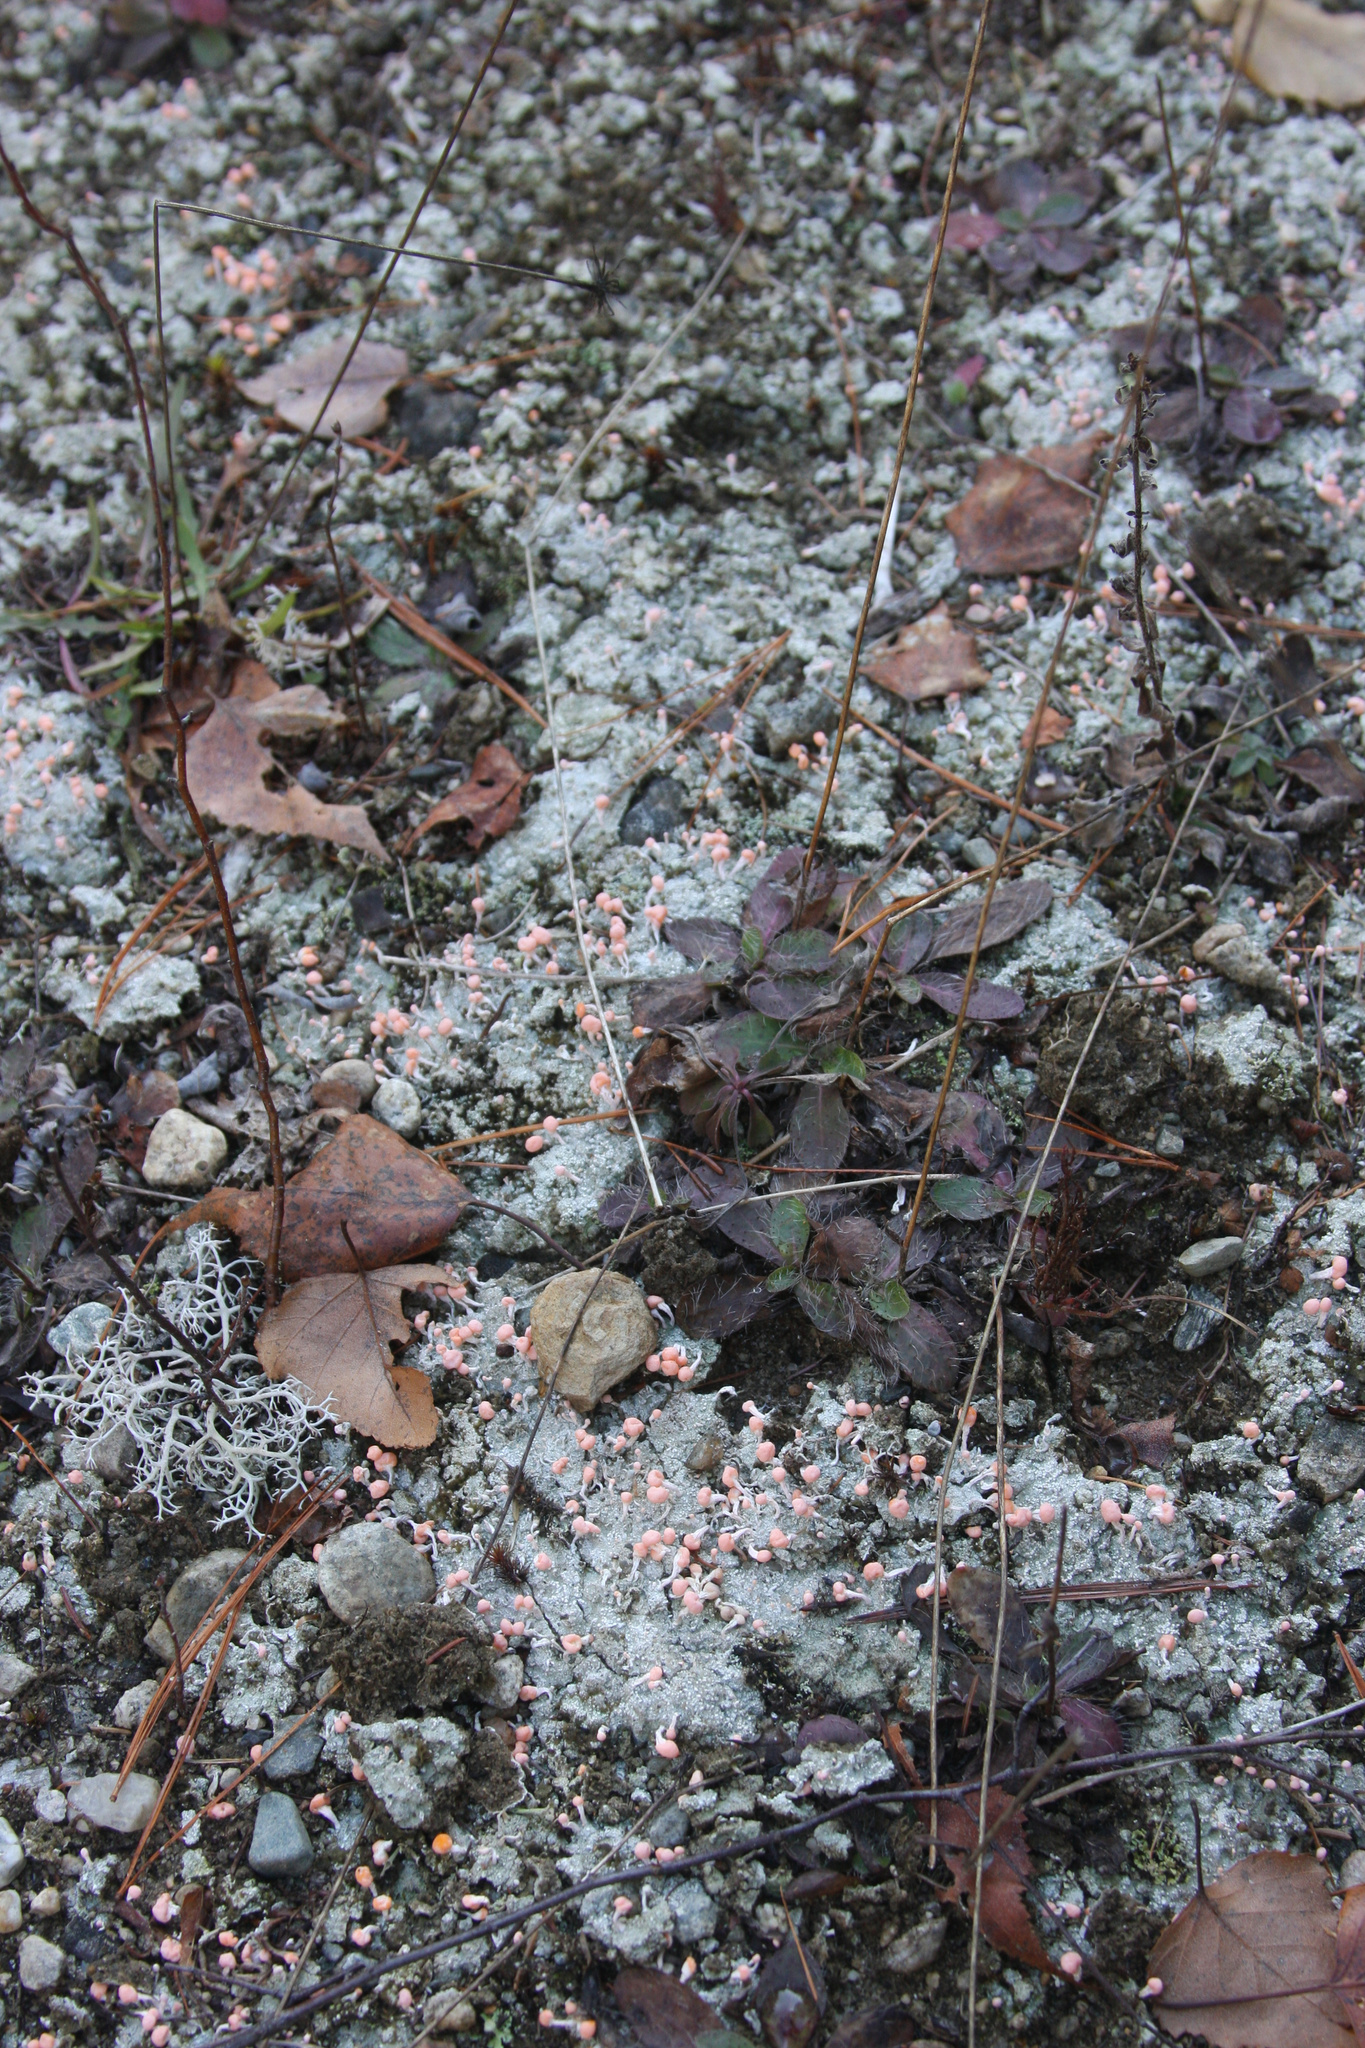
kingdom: Fungi
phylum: Ascomycota
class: Lecanoromycetes
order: Pertusariales
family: Icmadophilaceae
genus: Dibaeis
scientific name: Dibaeis baeomyces
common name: Pink earth lichen
